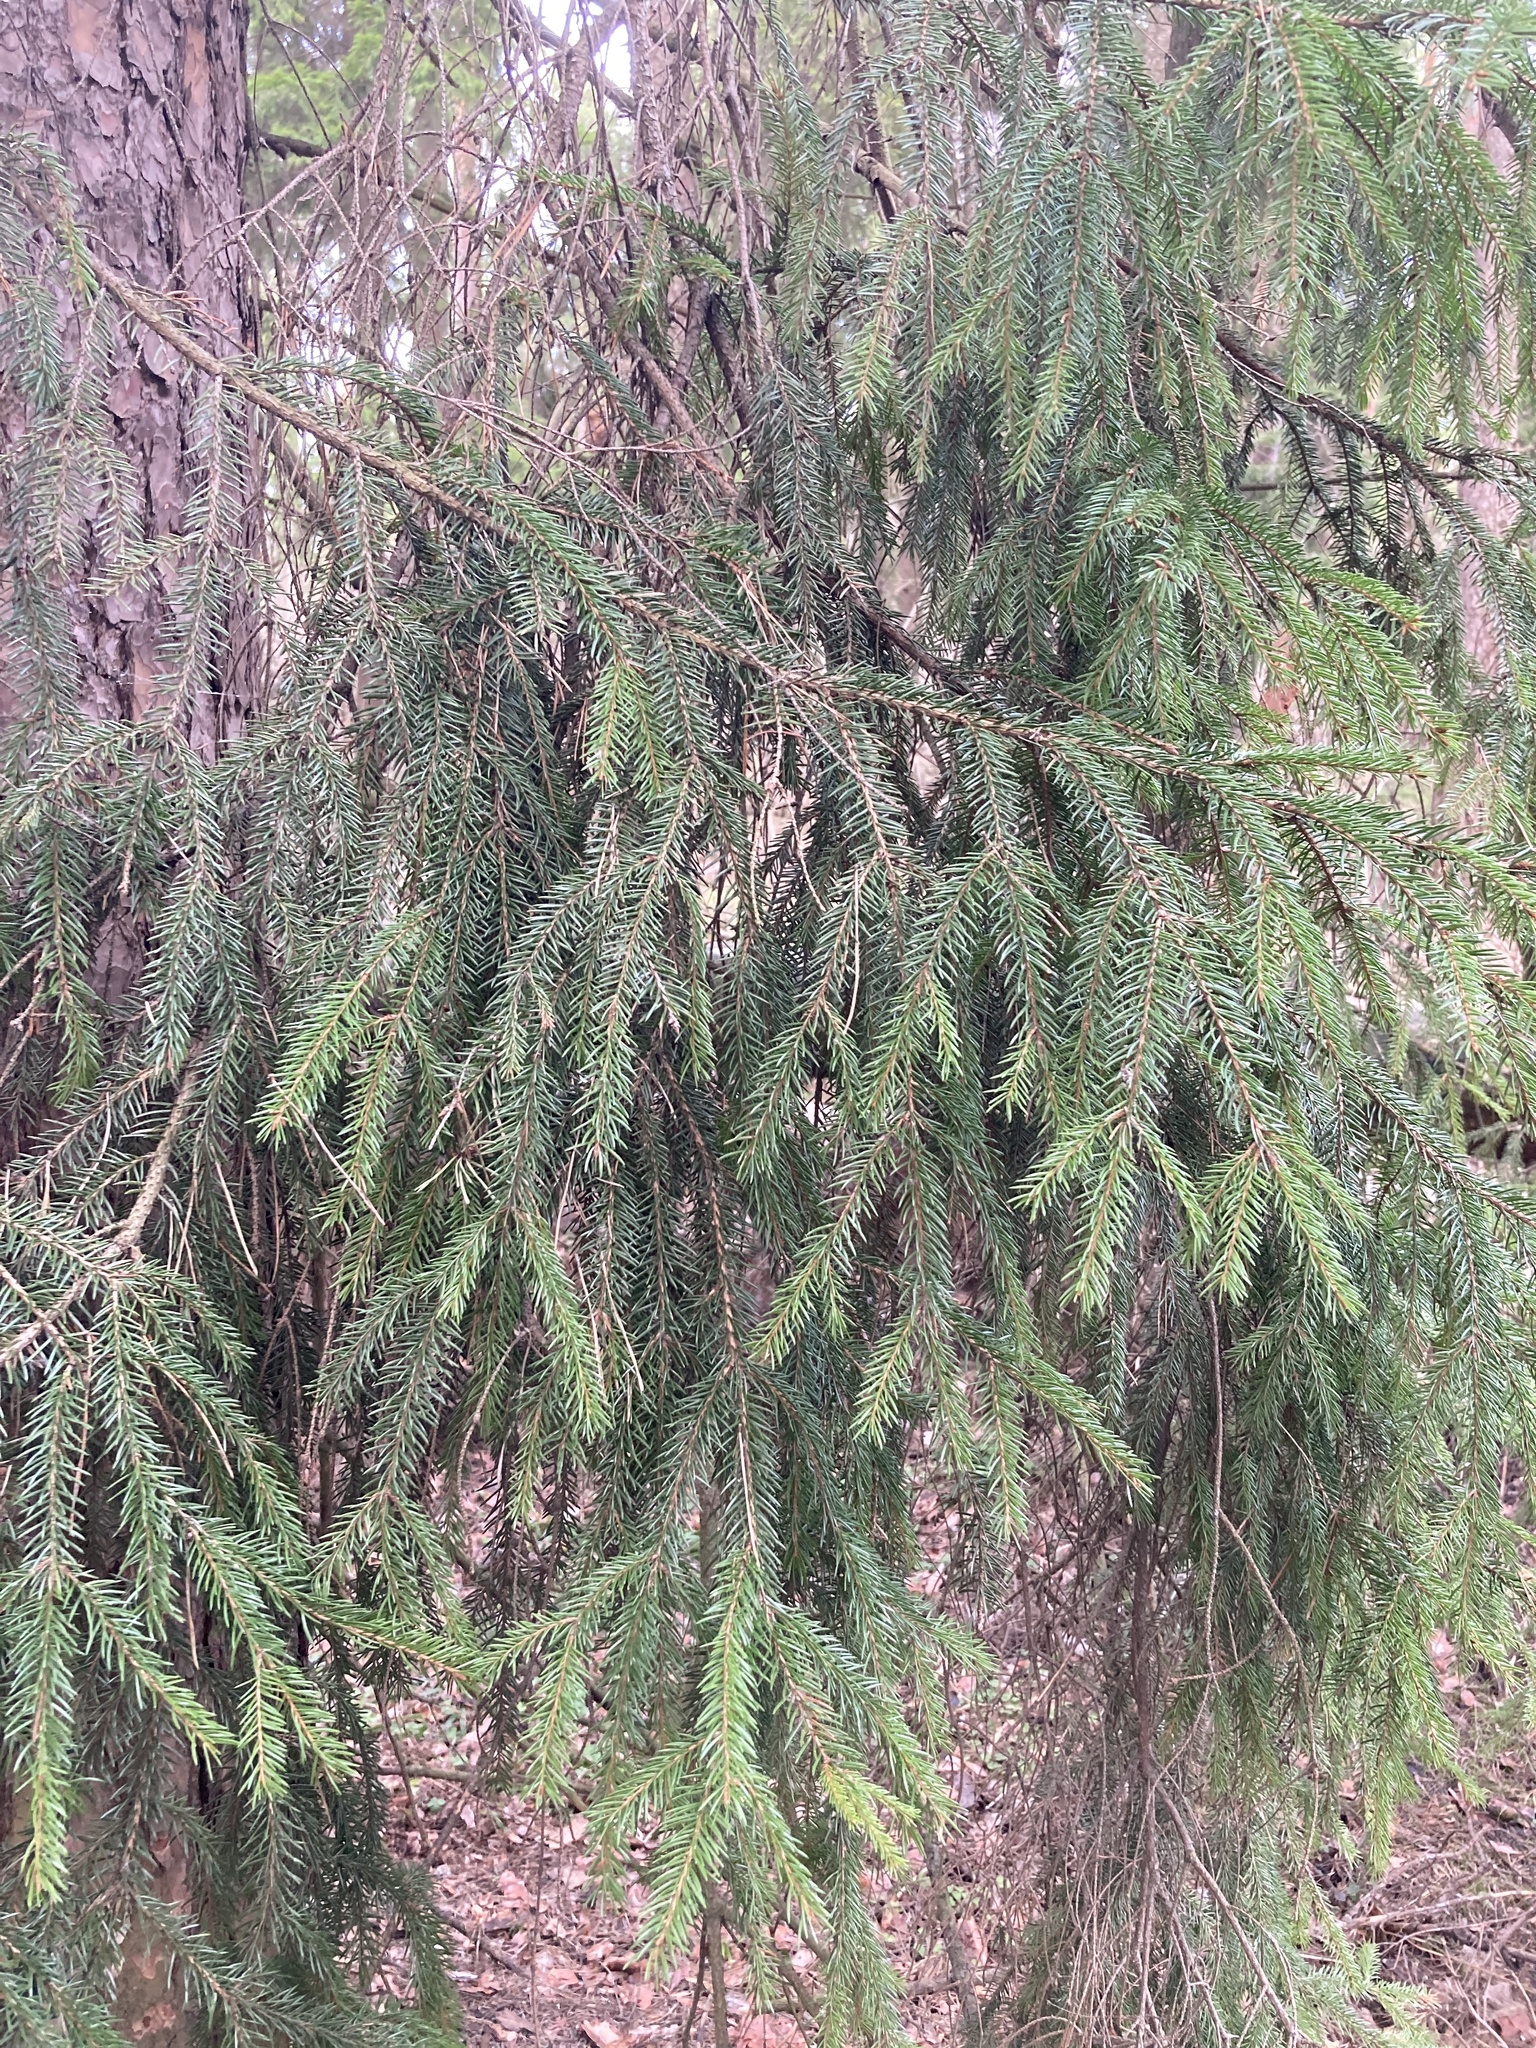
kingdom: Plantae
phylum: Tracheophyta
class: Pinopsida
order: Pinales
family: Pinaceae
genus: Picea
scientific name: Picea abies
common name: Norway spruce
